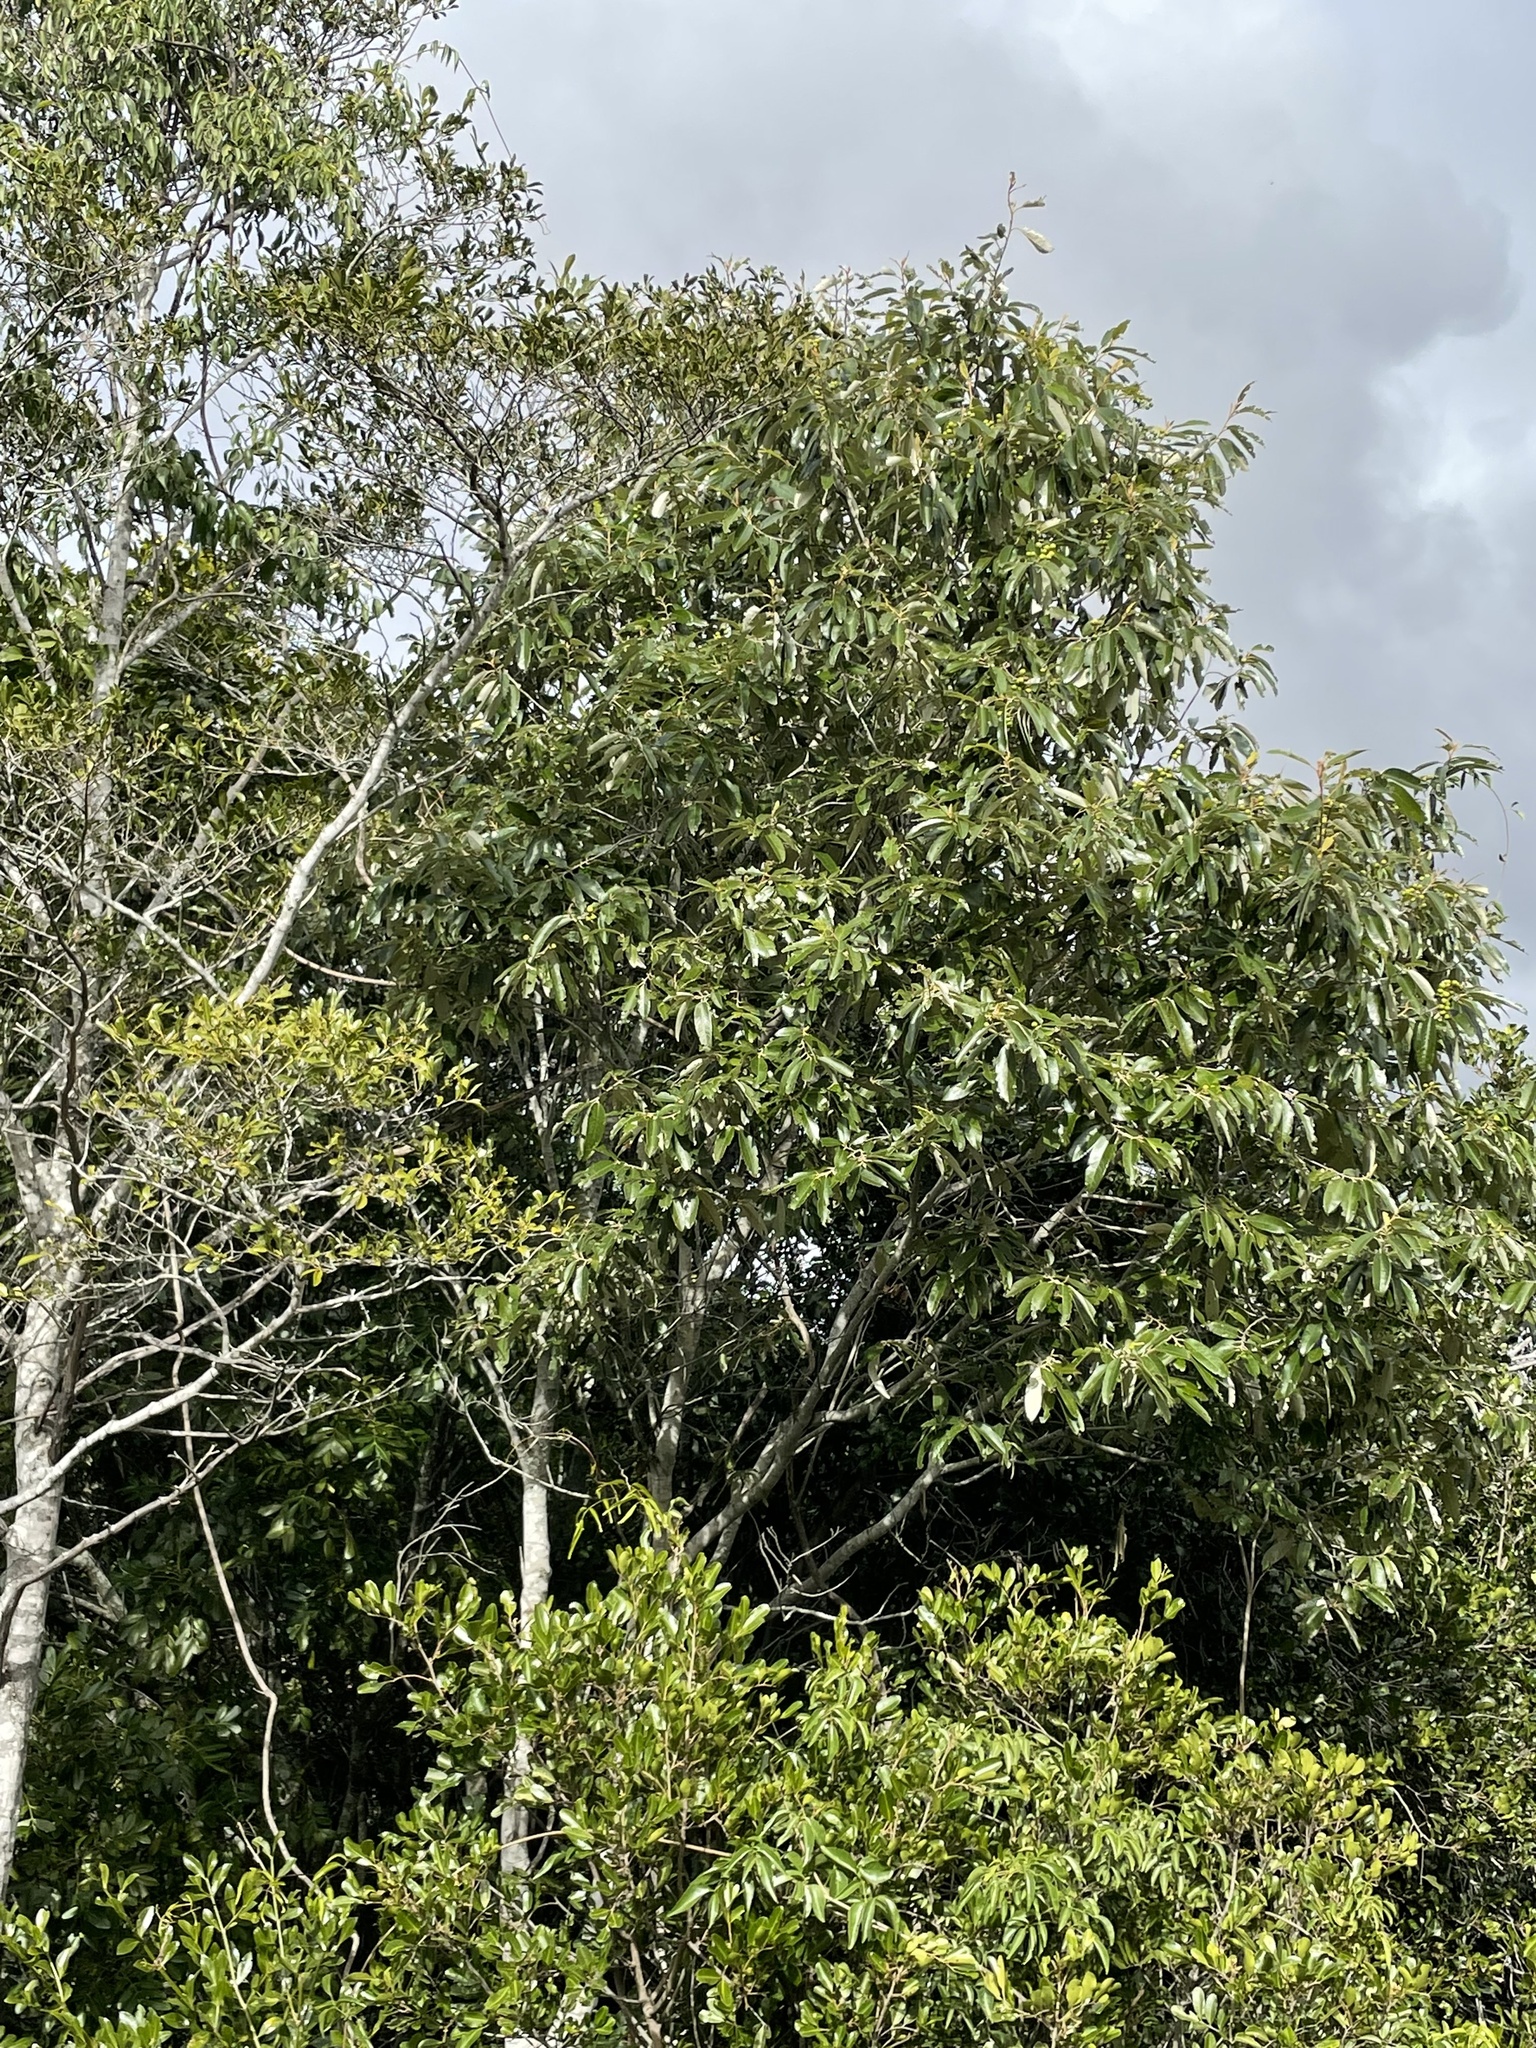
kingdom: Plantae
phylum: Tracheophyta
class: Magnoliopsida
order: Rosales
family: Rhamnaceae
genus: Alphitonia
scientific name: Alphitonia excelsa
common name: Red ash
